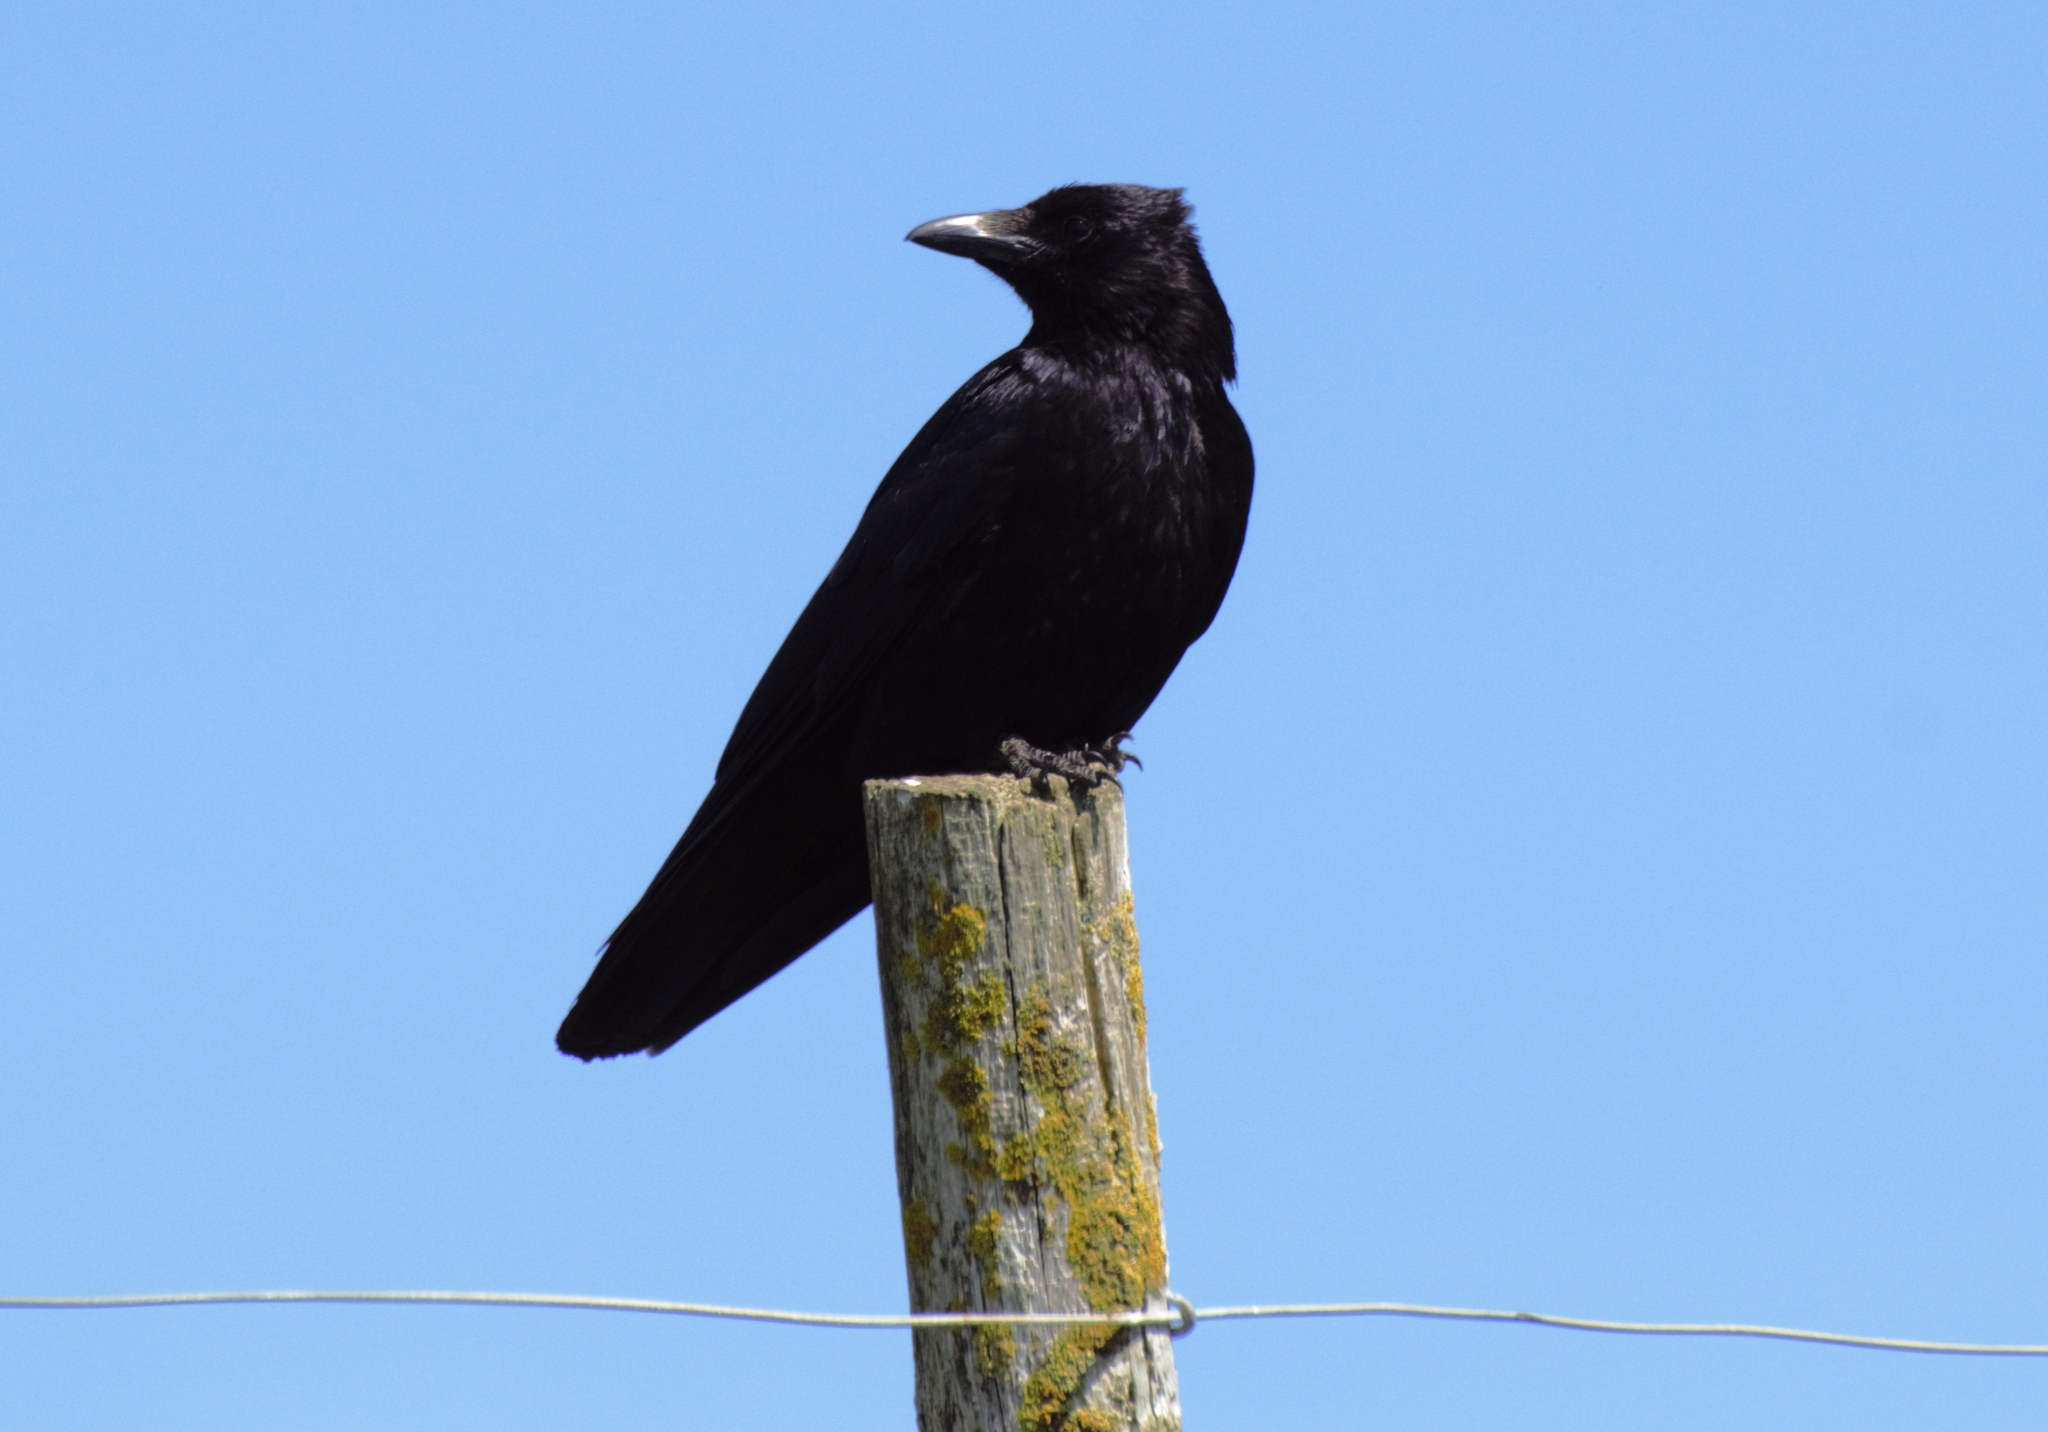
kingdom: Animalia
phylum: Chordata
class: Aves
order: Passeriformes
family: Corvidae
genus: Corvus
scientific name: Corvus corone
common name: Carrion crow
